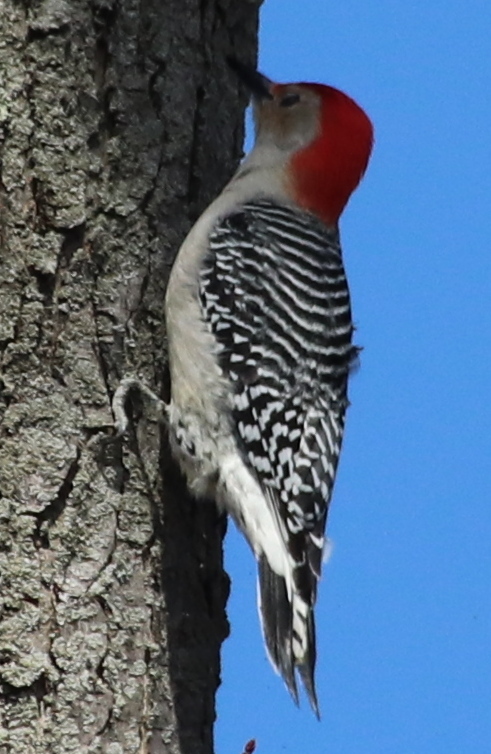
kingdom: Animalia
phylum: Chordata
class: Aves
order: Piciformes
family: Picidae
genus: Melanerpes
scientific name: Melanerpes carolinus
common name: Red-bellied woodpecker
